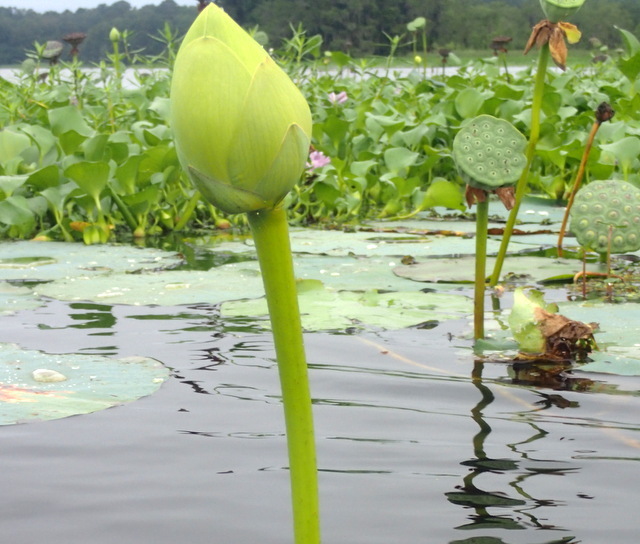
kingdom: Plantae
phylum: Tracheophyta
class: Magnoliopsida
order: Proteales
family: Nelumbonaceae
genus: Nelumbo
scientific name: Nelumbo lutea
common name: American lotus
